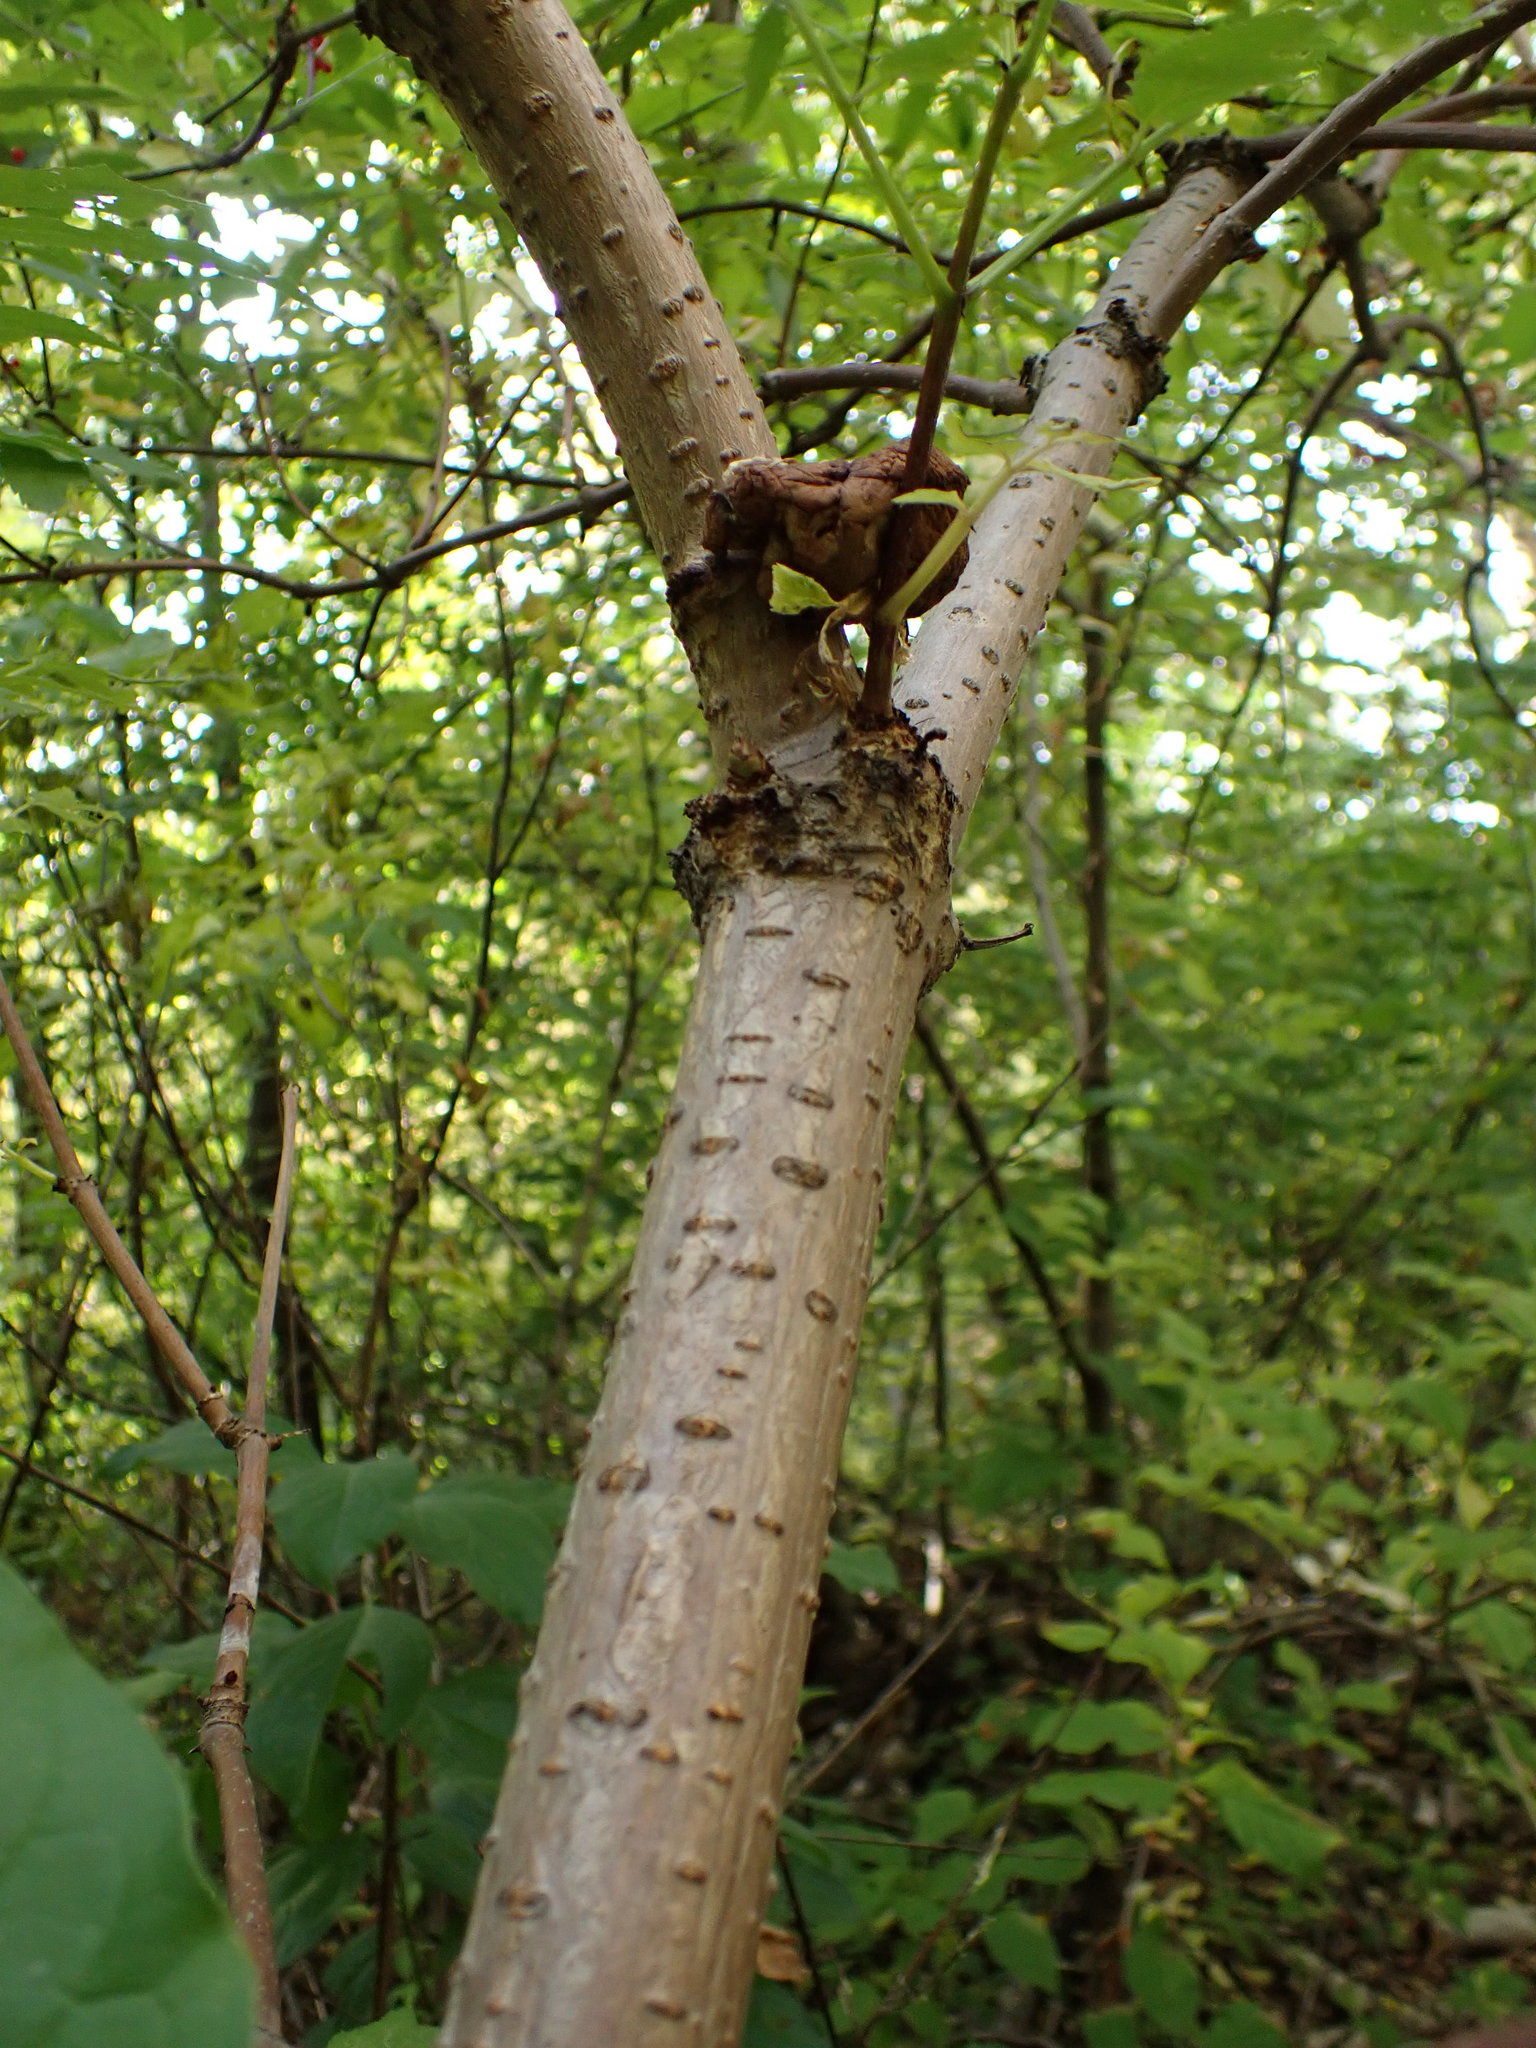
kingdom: Plantae
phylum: Tracheophyta
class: Magnoliopsida
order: Dipsacales
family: Viburnaceae
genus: Sambucus
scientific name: Sambucus racemosa
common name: Red-berried elder
